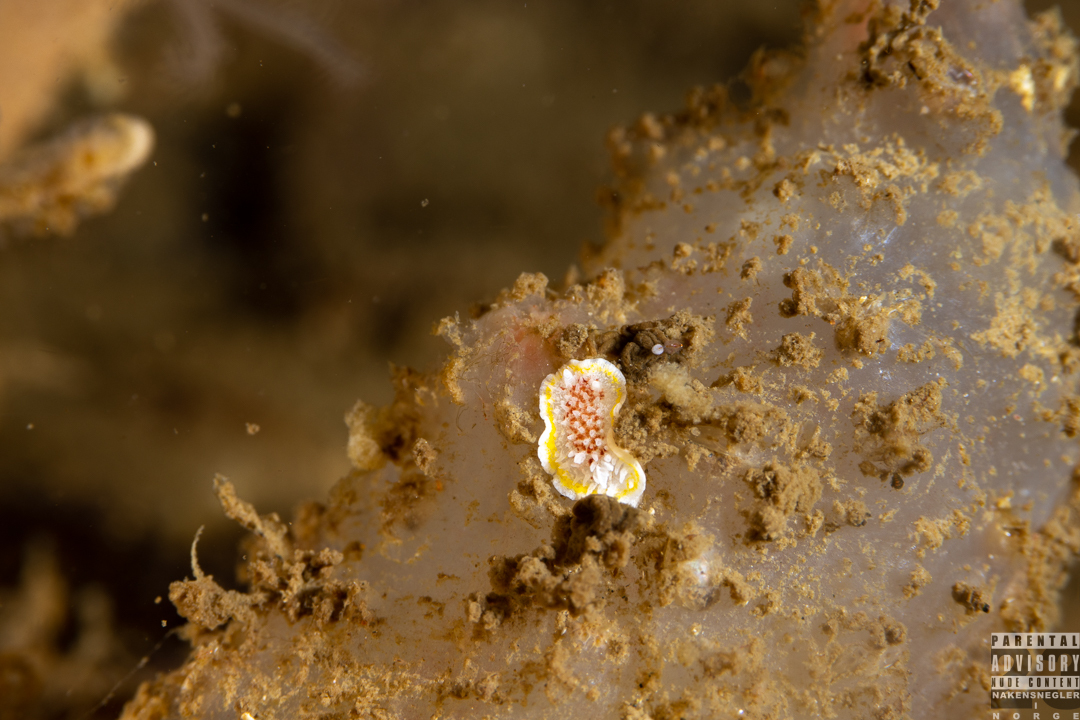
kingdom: Animalia
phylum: Mollusca
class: Gastropoda
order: Nudibranchia
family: Calycidorididae
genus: Diaphorodoris
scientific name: Diaphorodoris luteocincta
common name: Fried egg nudibranch
